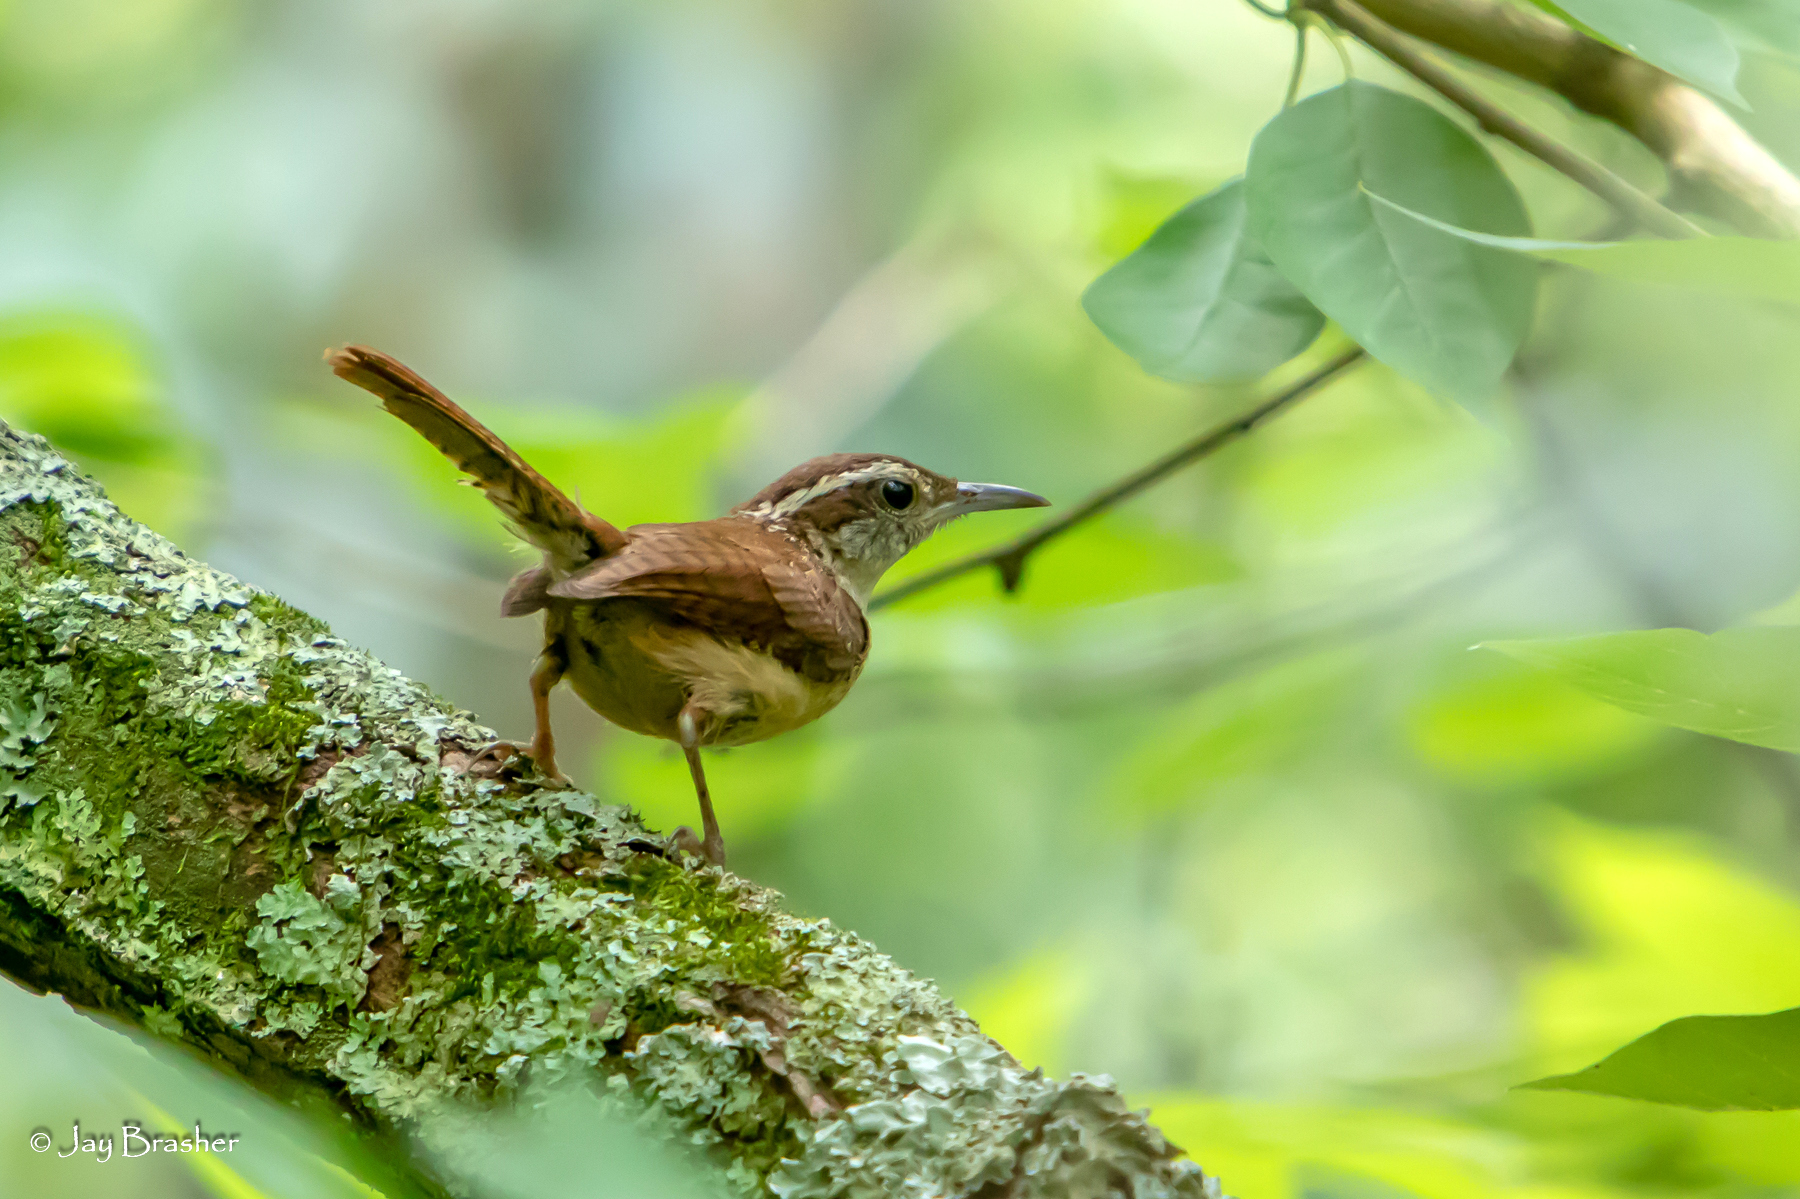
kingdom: Animalia
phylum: Chordata
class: Aves
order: Passeriformes
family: Troglodytidae
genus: Thryothorus
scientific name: Thryothorus ludovicianus
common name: Carolina wren
